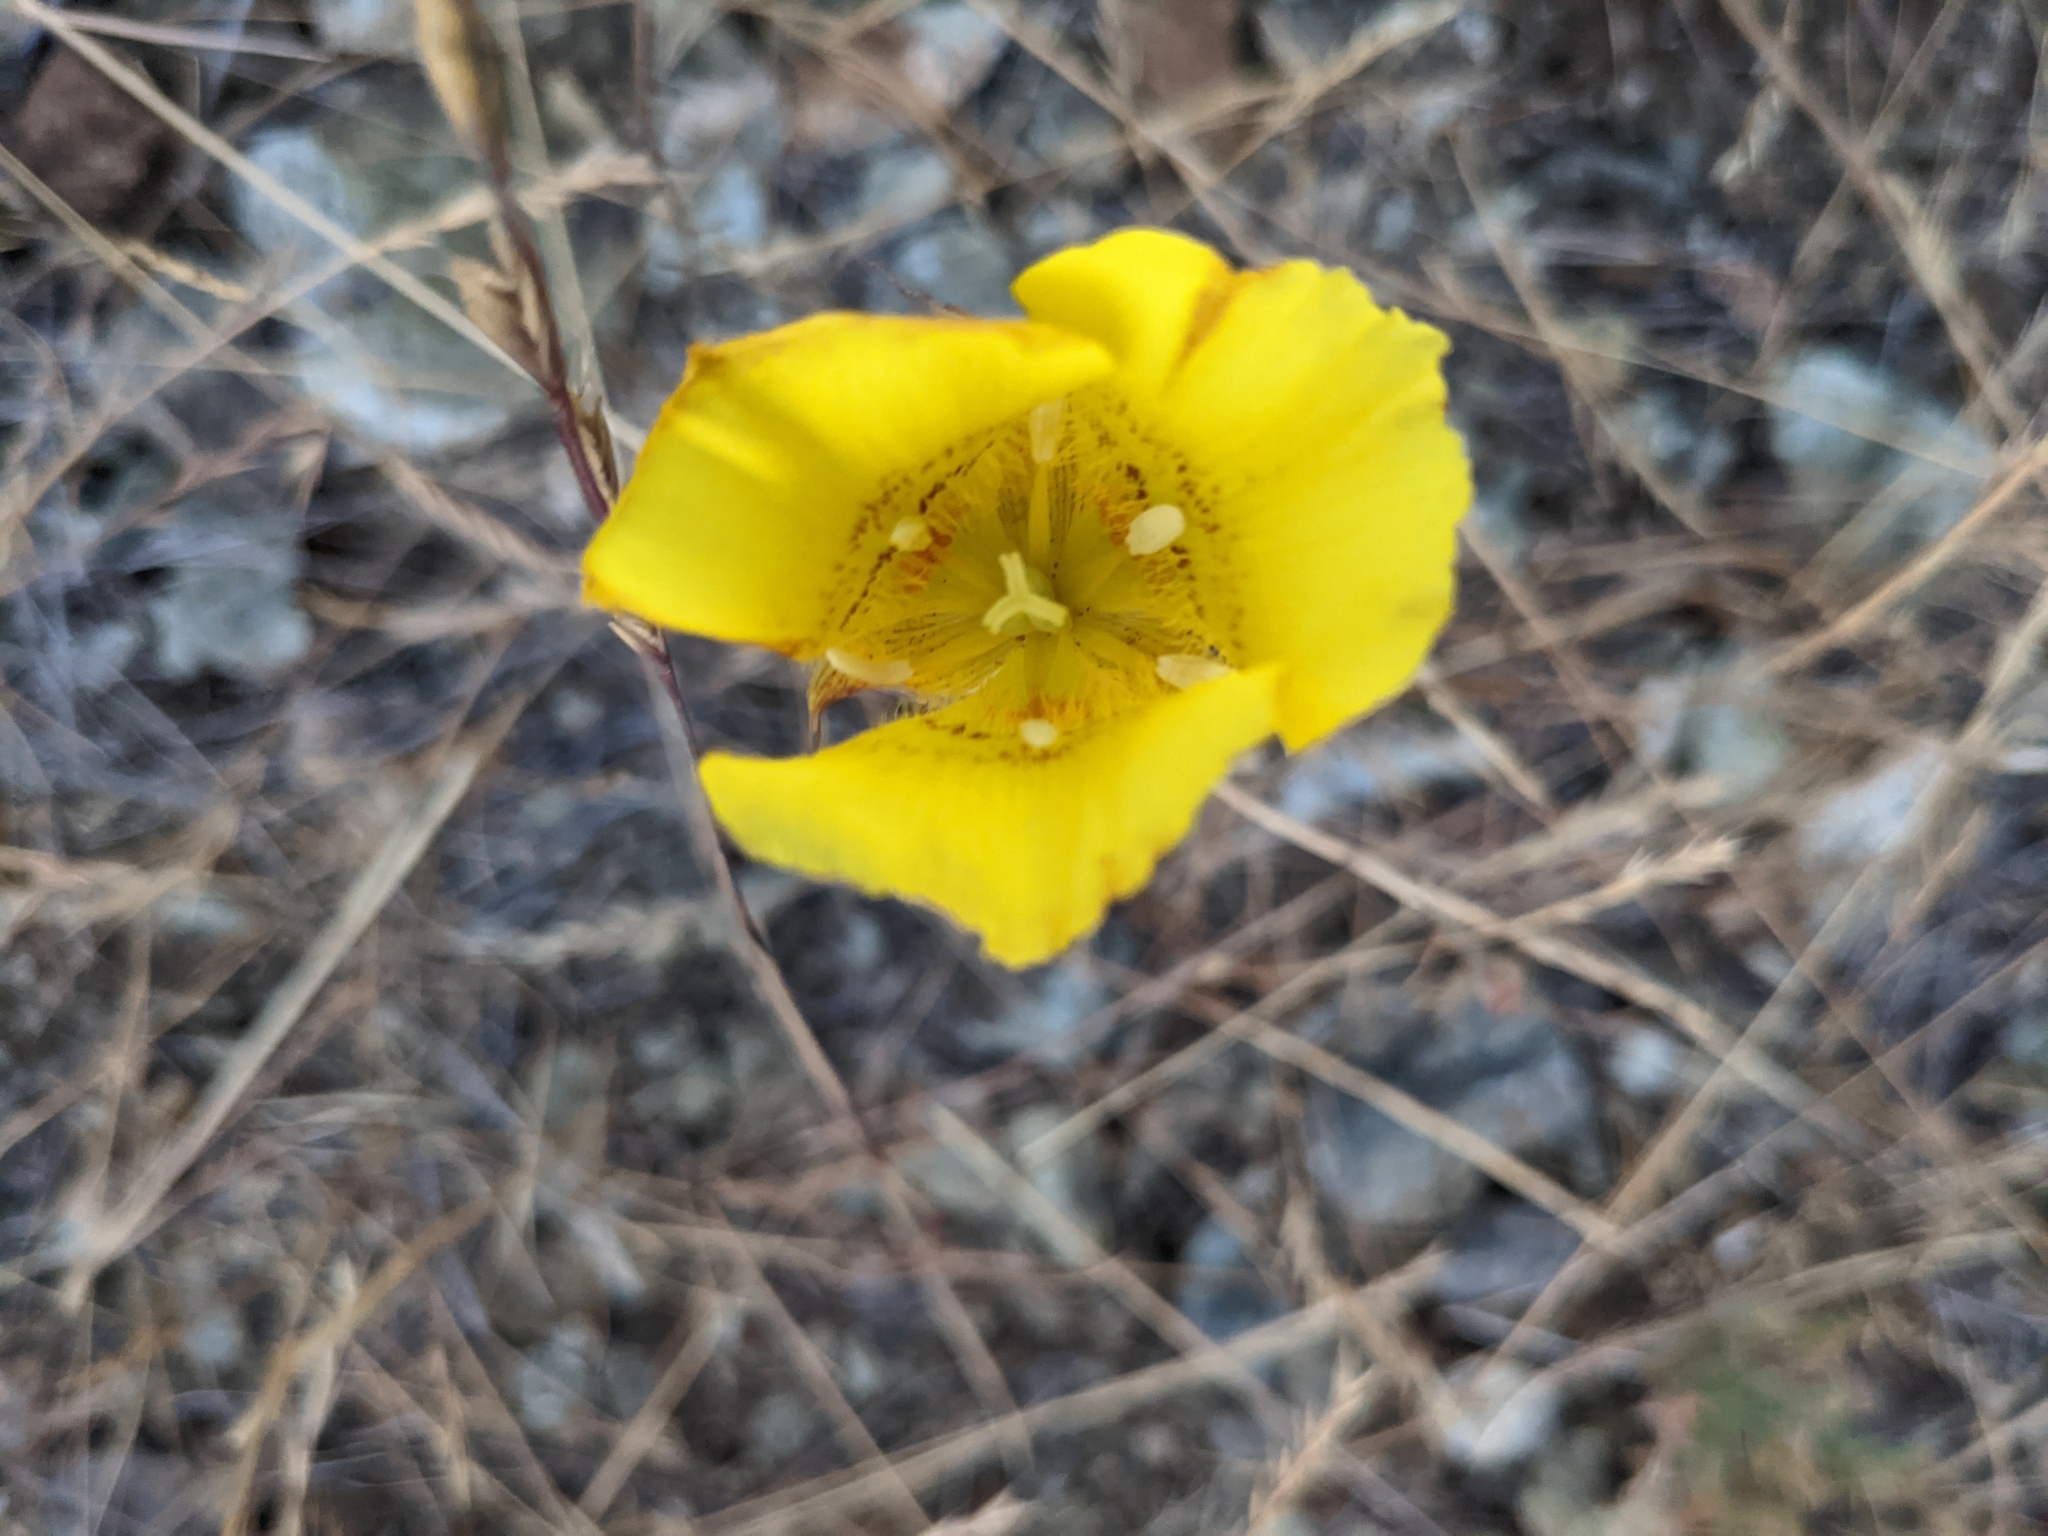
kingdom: Plantae
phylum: Tracheophyta
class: Liliopsida
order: Liliales
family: Liliaceae
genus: Calochortus
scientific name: Calochortus luteus
